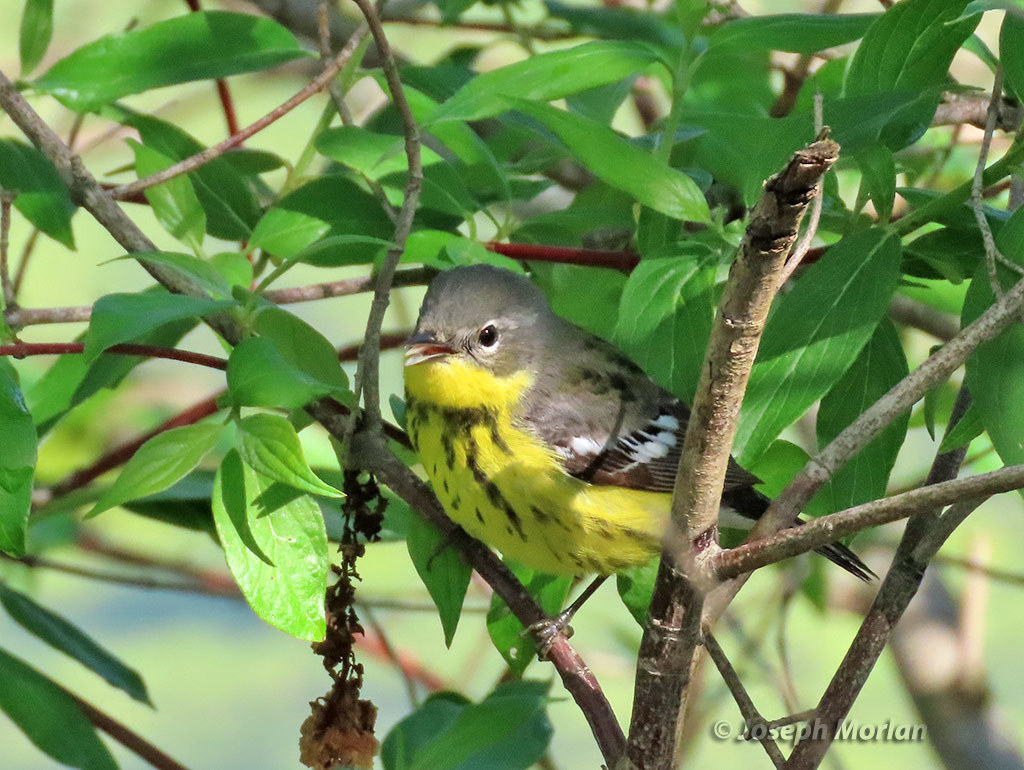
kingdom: Animalia
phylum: Chordata
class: Aves
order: Passeriformes
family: Parulidae
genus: Setophaga
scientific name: Setophaga magnolia
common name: Magnolia warbler
